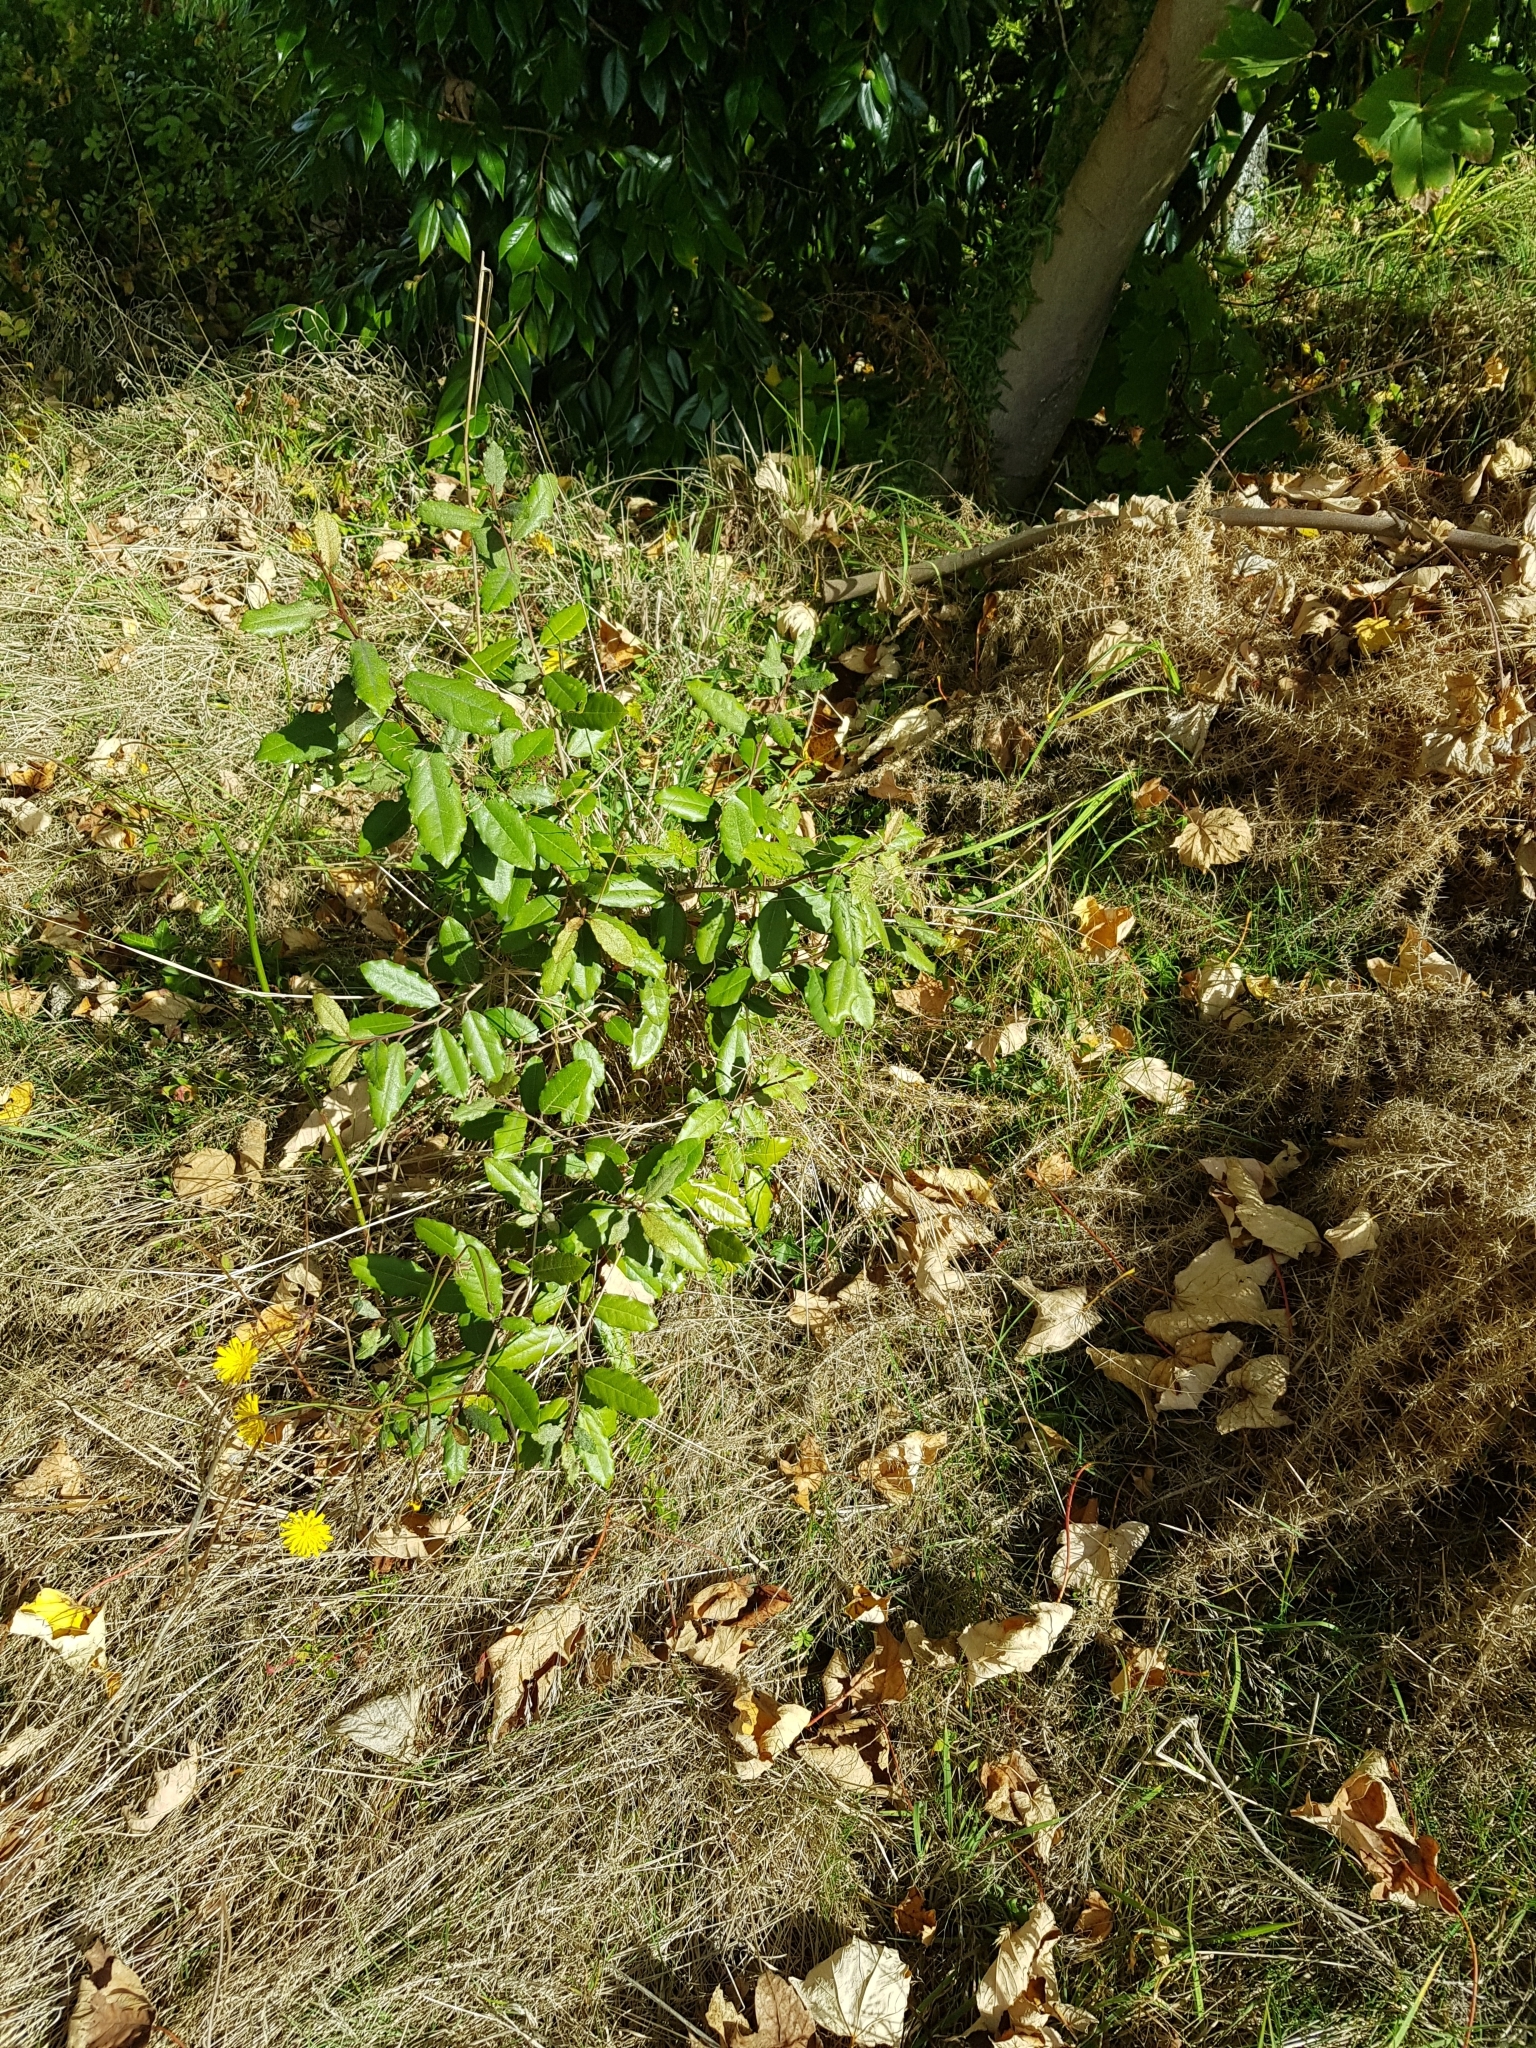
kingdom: Plantae
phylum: Tracheophyta
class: Magnoliopsida
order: Rosales
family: Elaeagnaceae
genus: Elaeagnus
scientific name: Elaeagnus reflexa
